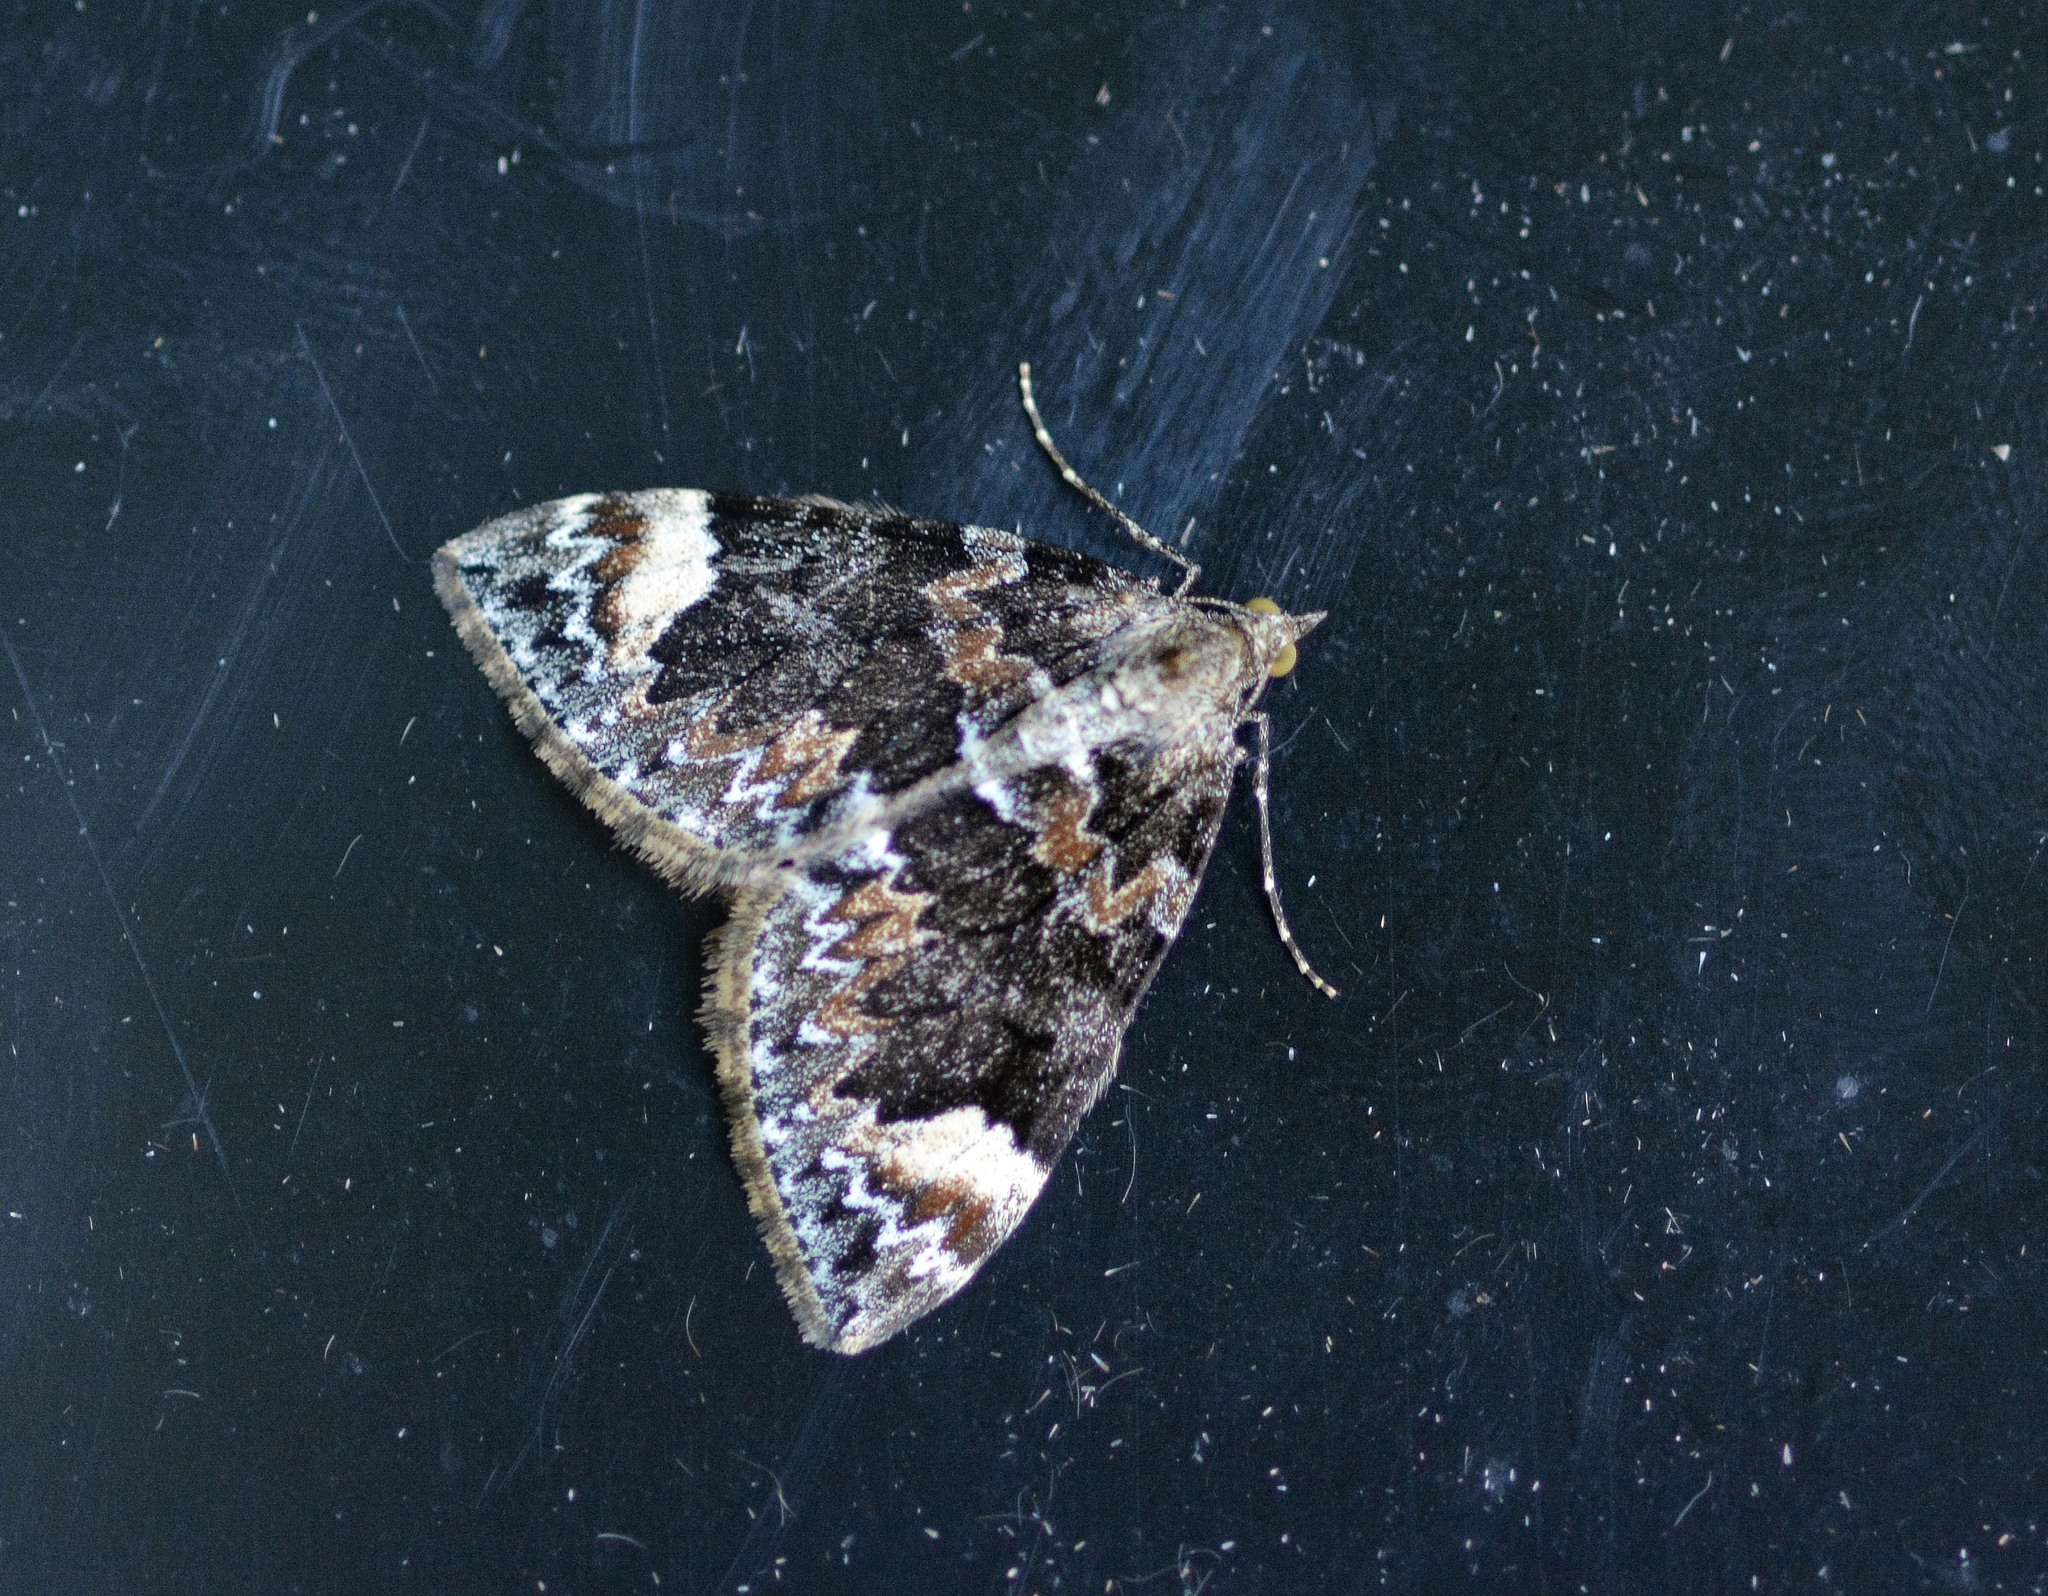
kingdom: Animalia
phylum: Arthropoda
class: Insecta
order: Lepidoptera
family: Geometridae
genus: Dysstroma
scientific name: Dysstroma
